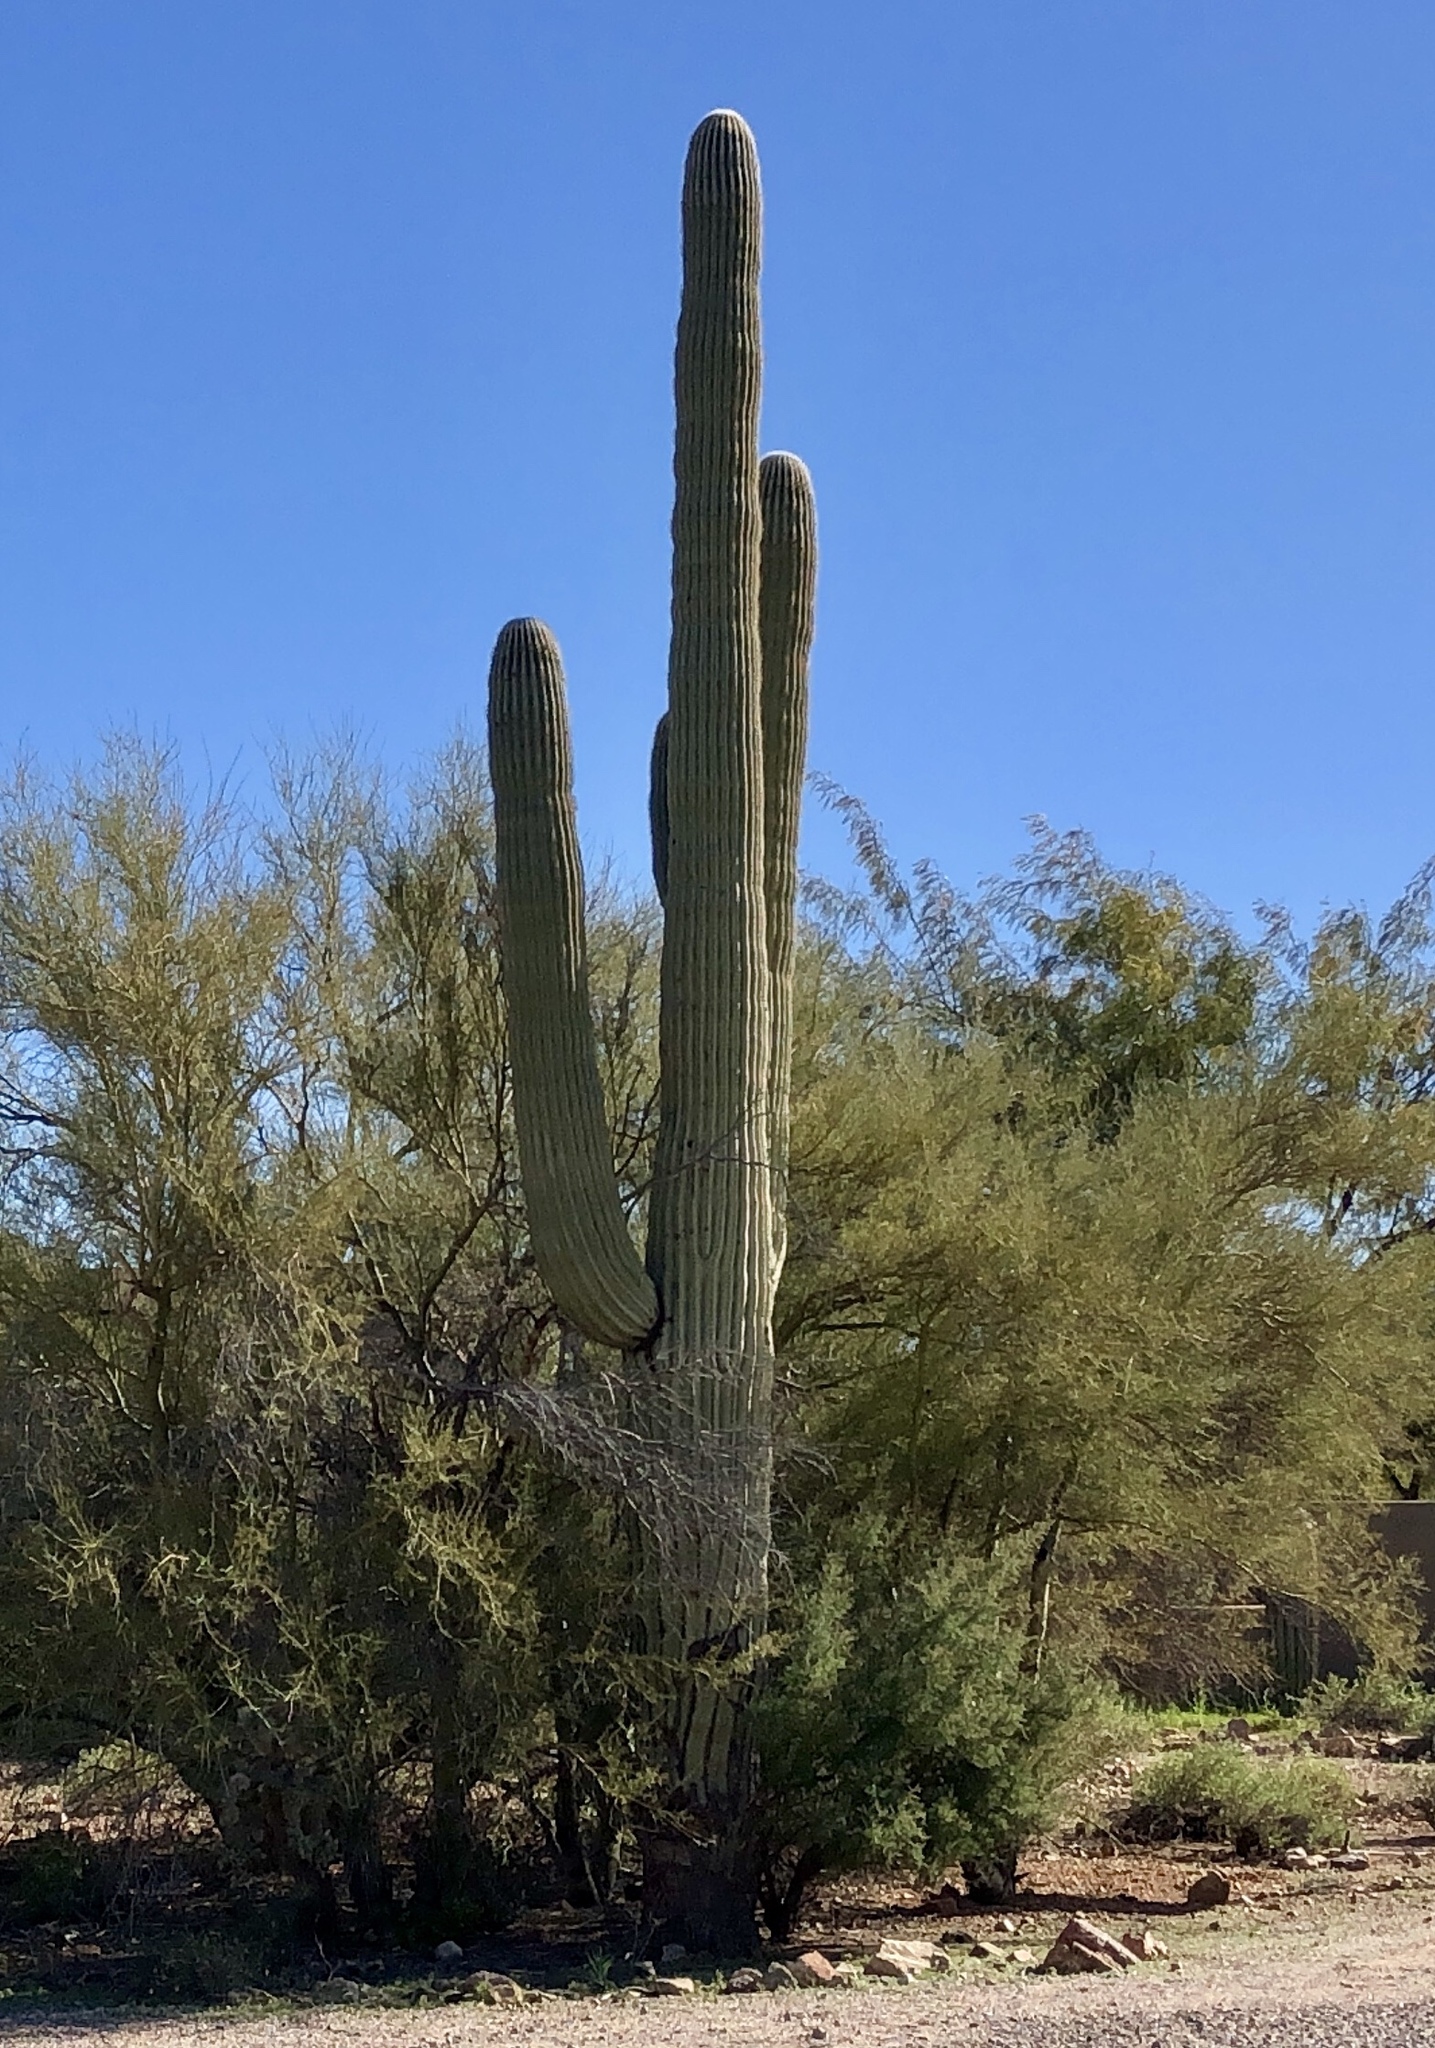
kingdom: Plantae
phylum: Tracheophyta
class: Magnoliopsida
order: Caryophyllales
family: Cactaceae
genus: Carnegiea
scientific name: Carnegiea gigantea
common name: Saguaro
